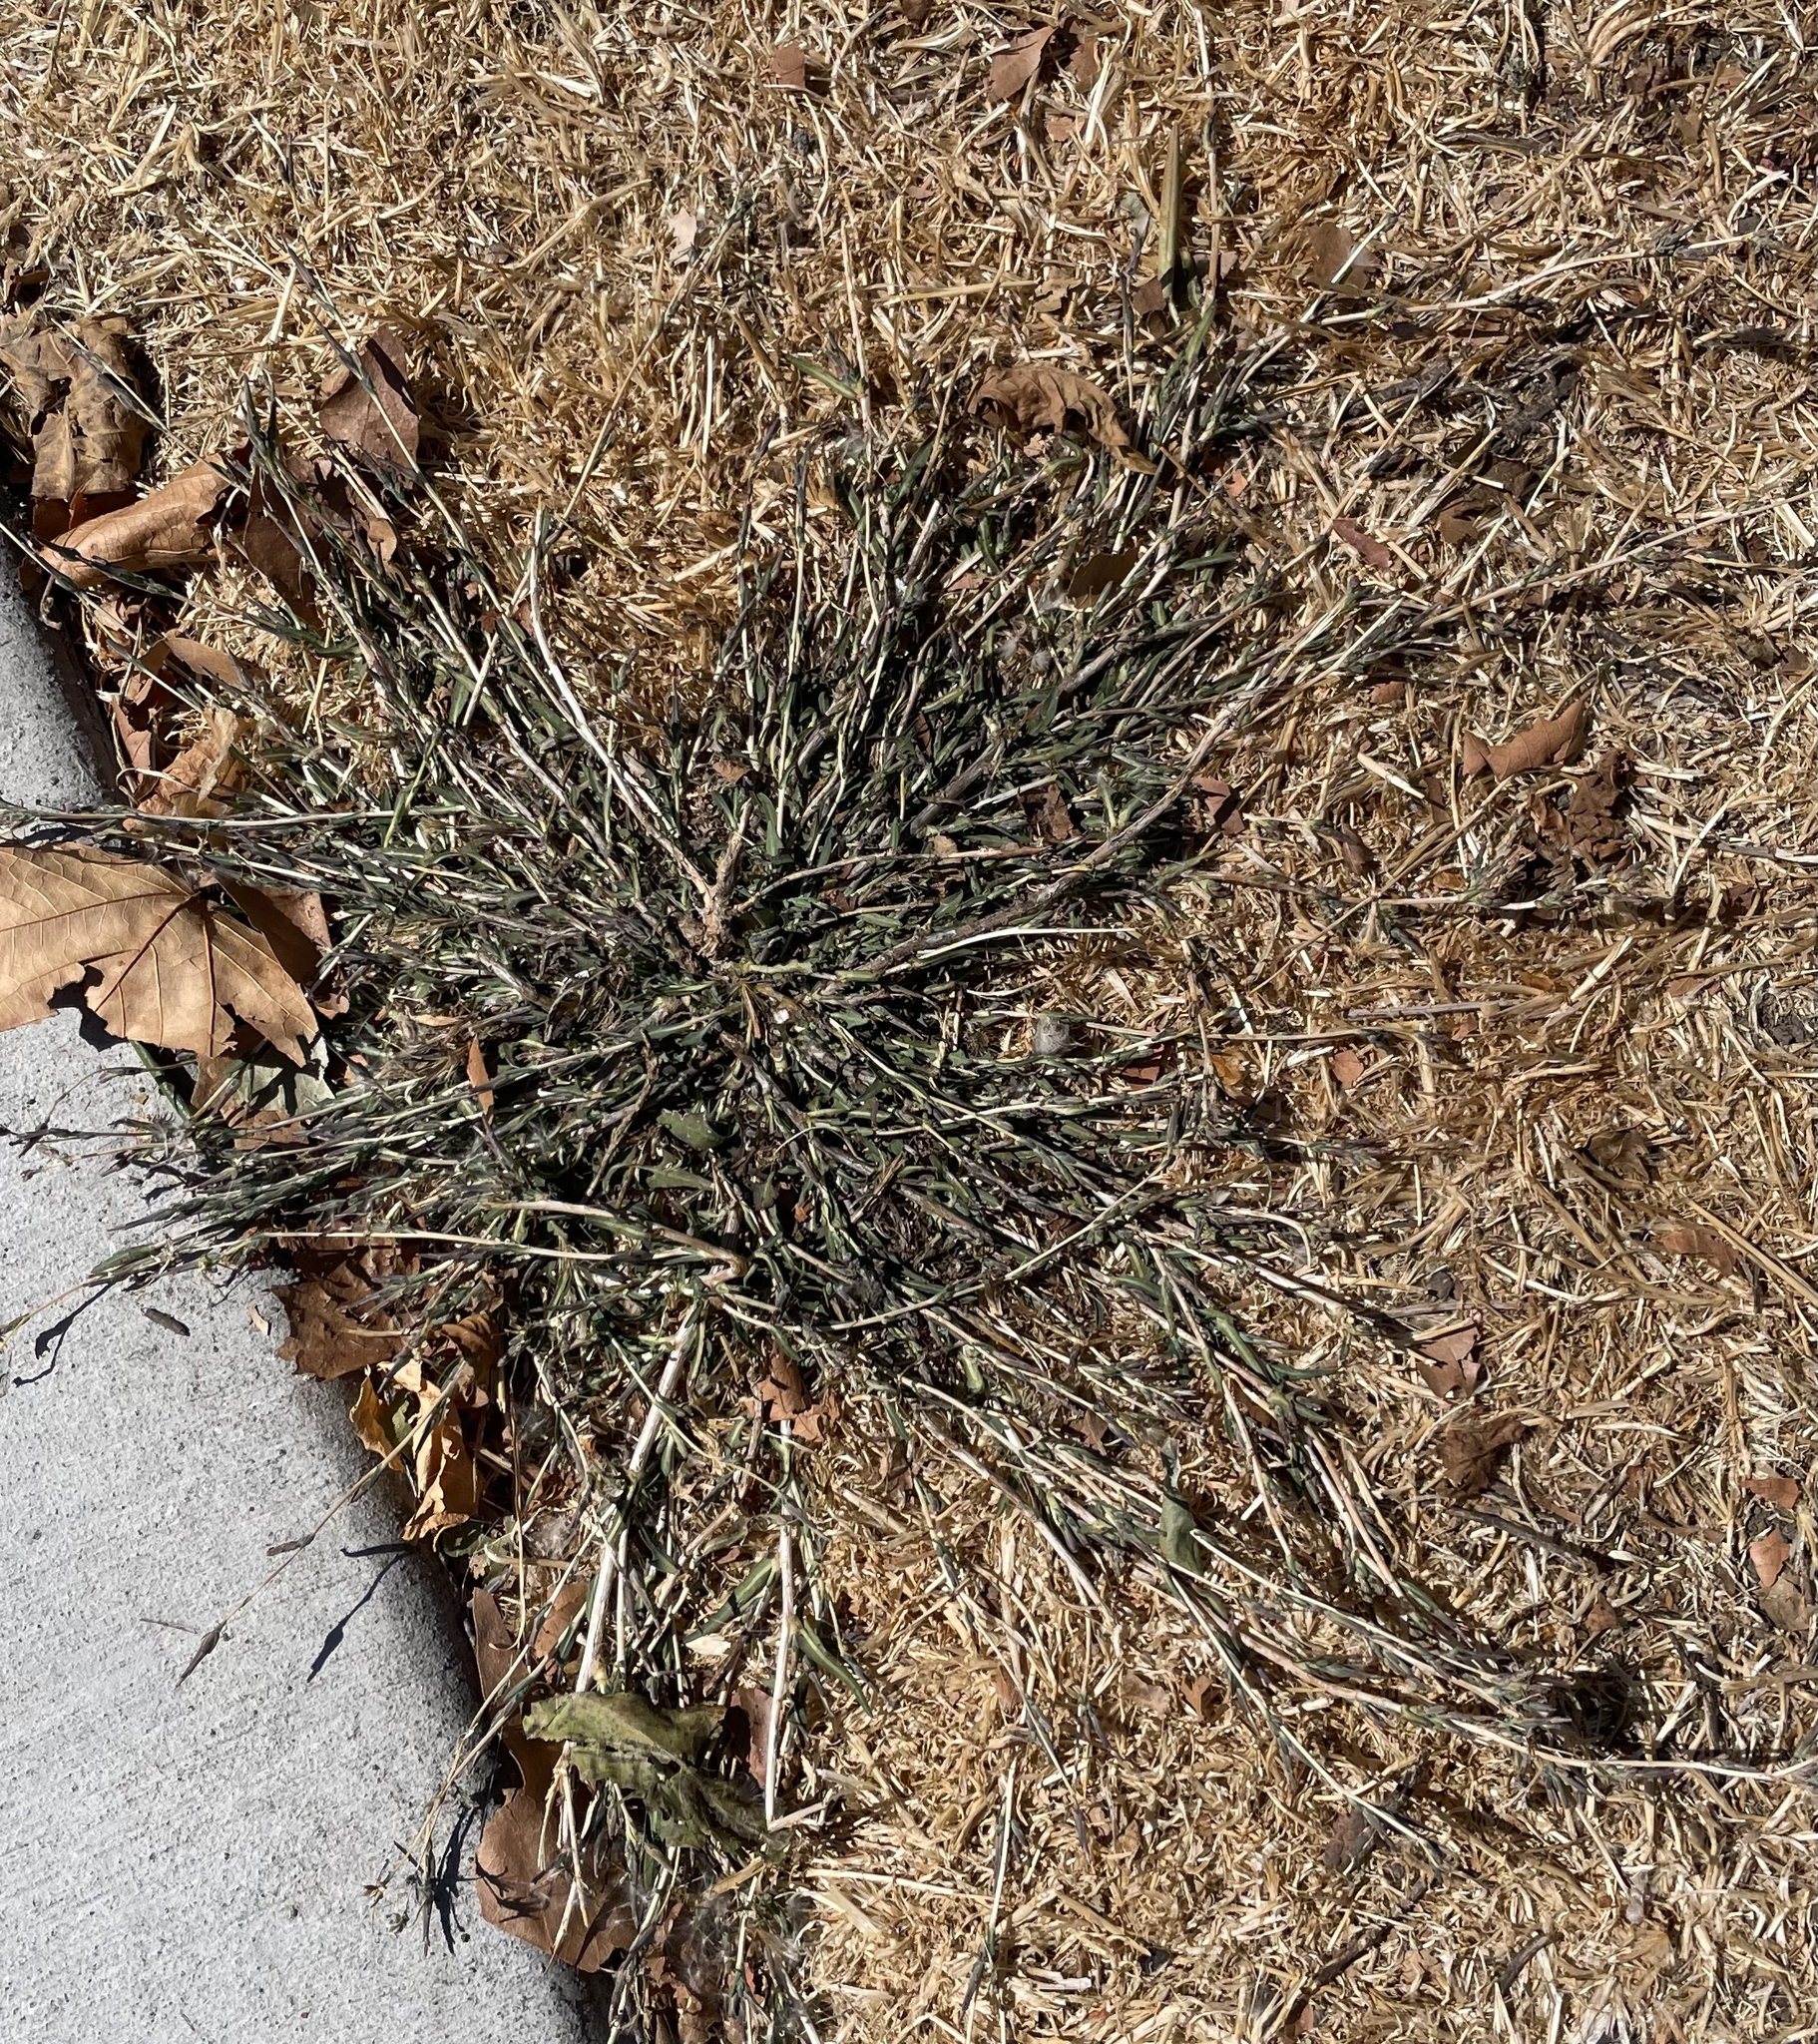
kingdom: Plantae
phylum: Tracheophyta
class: Magnoliopsida
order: Asterales
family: Asteraceae
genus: Lactuca
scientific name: Lactuca saligna
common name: Wild lettuce
